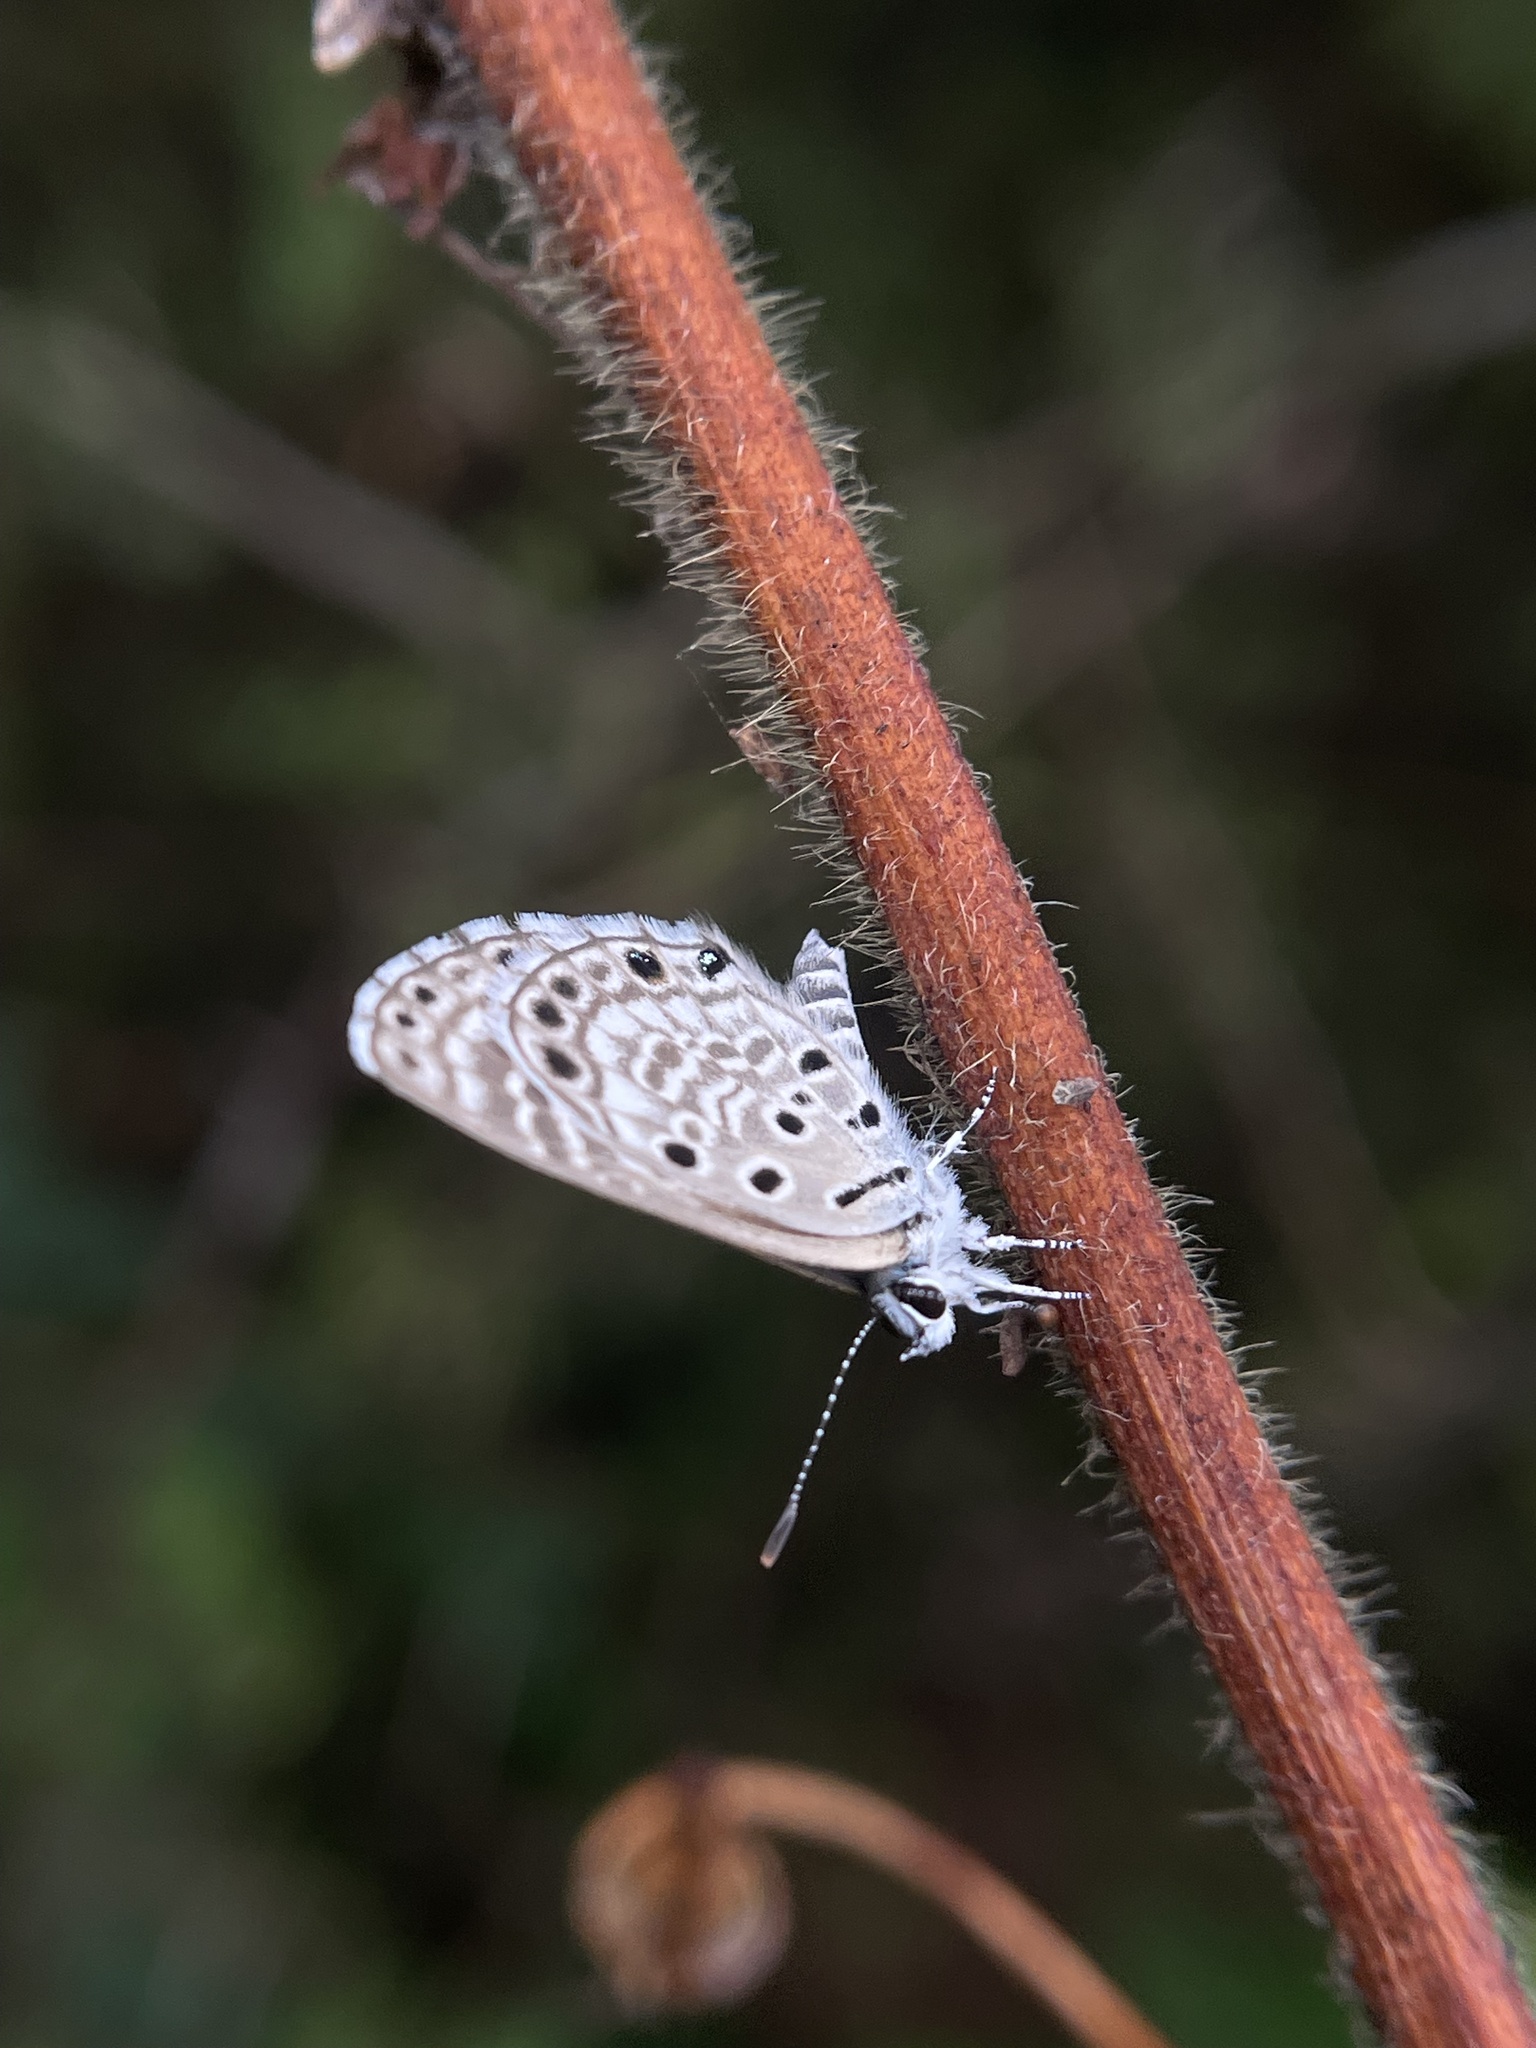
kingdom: Animalia
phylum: Arthropoda
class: Insecta
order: Lepidoptera
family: Lycaenidae
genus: Azanus
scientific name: Azanus jesous
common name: African babul blue
